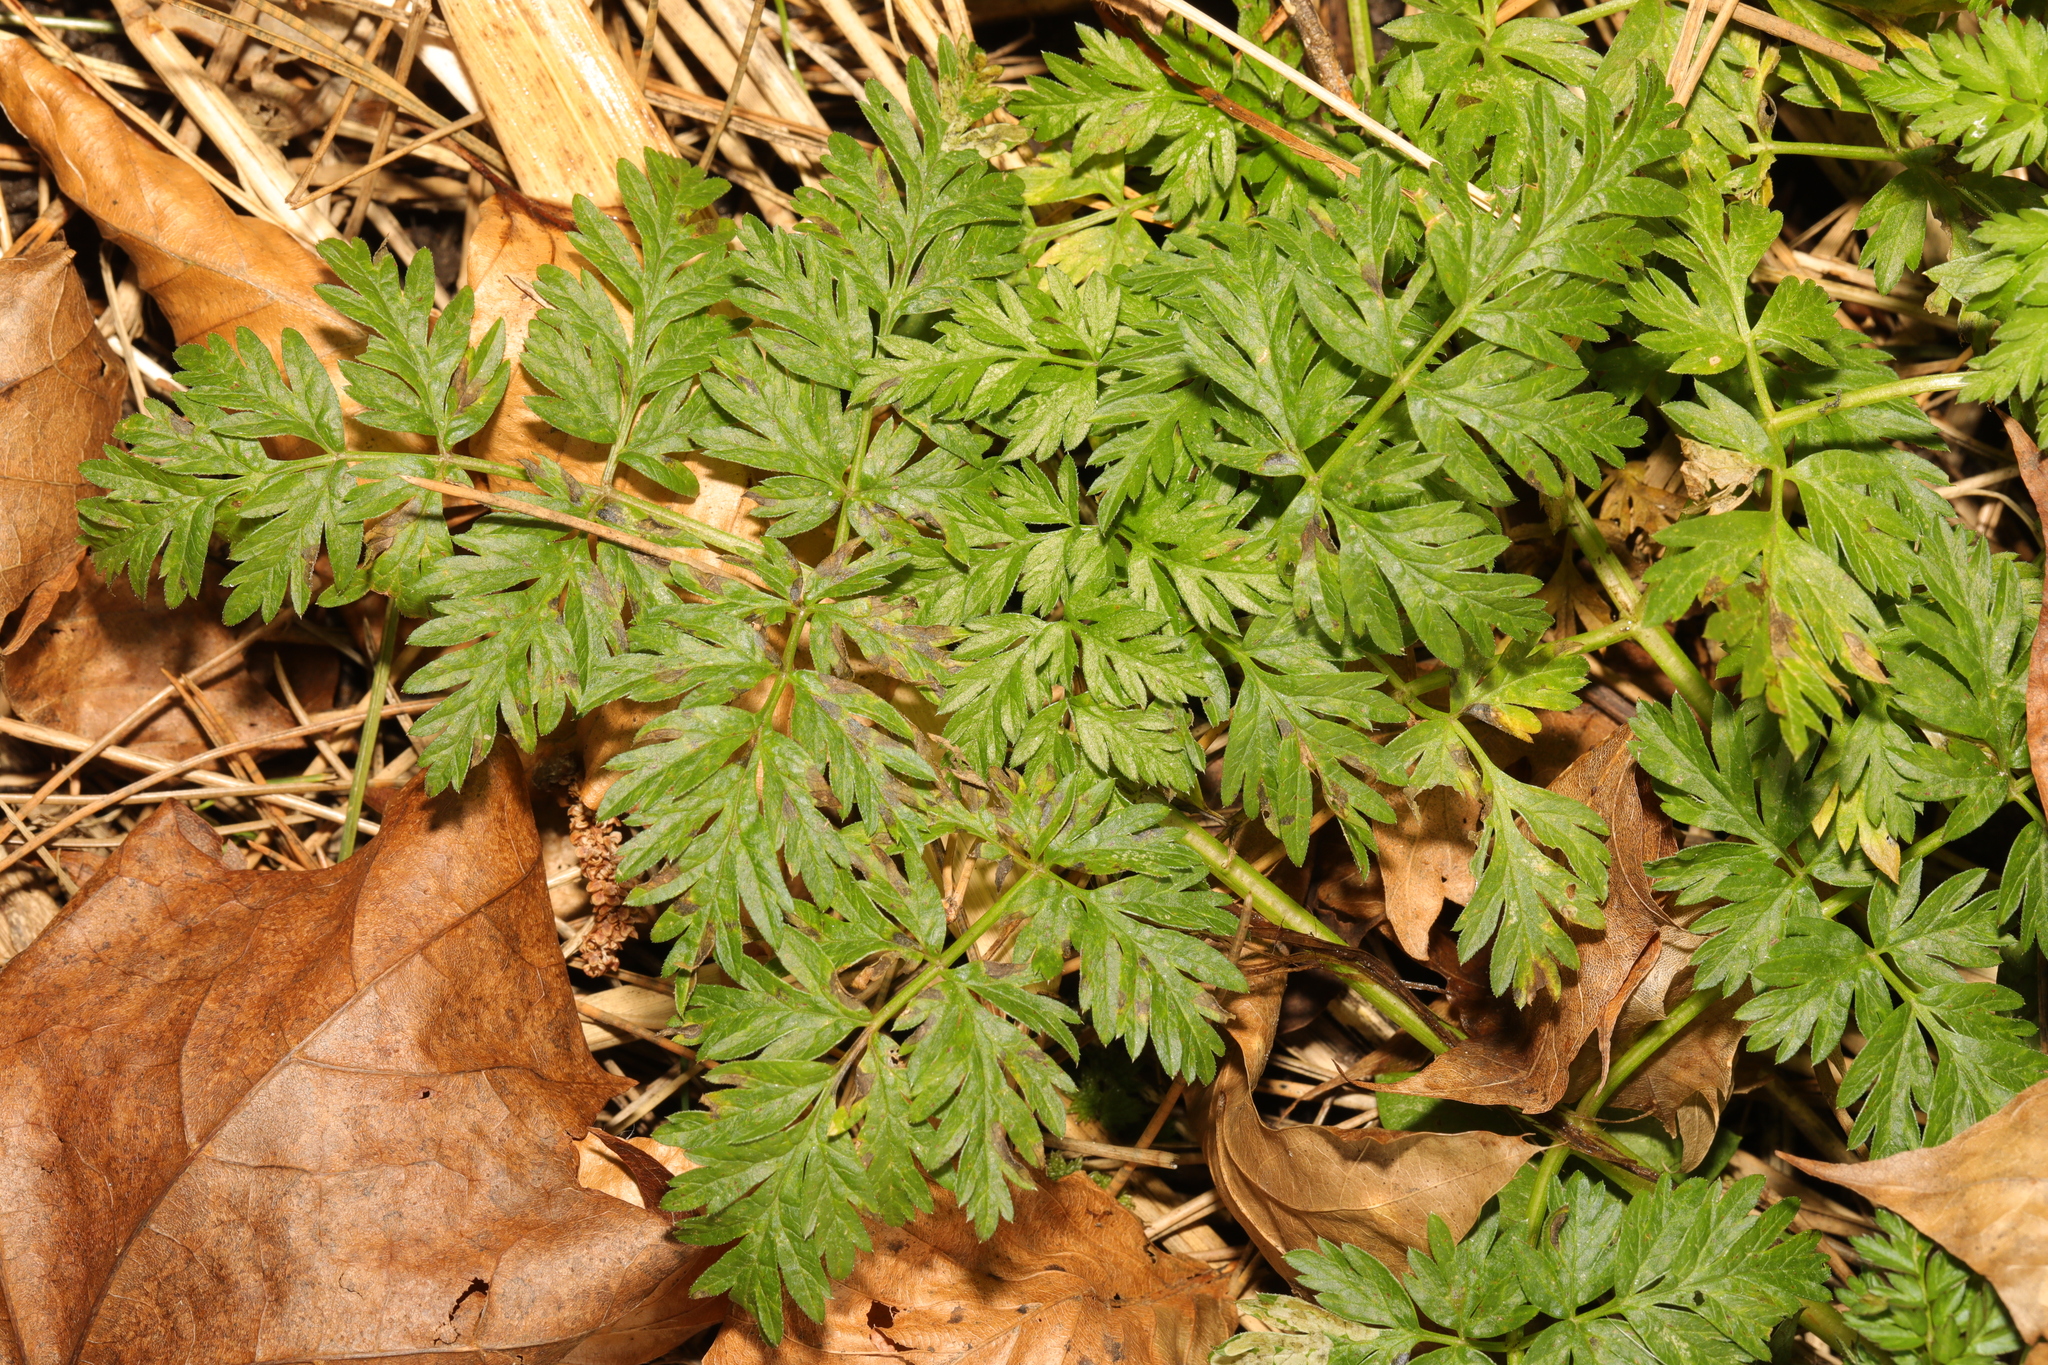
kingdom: Plantae
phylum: Tracheophyta
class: Magnoliopsida
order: Apiales
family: Apiaceae
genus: Anthriscus
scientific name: Anthriscus sylvestris
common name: Cow parsley
